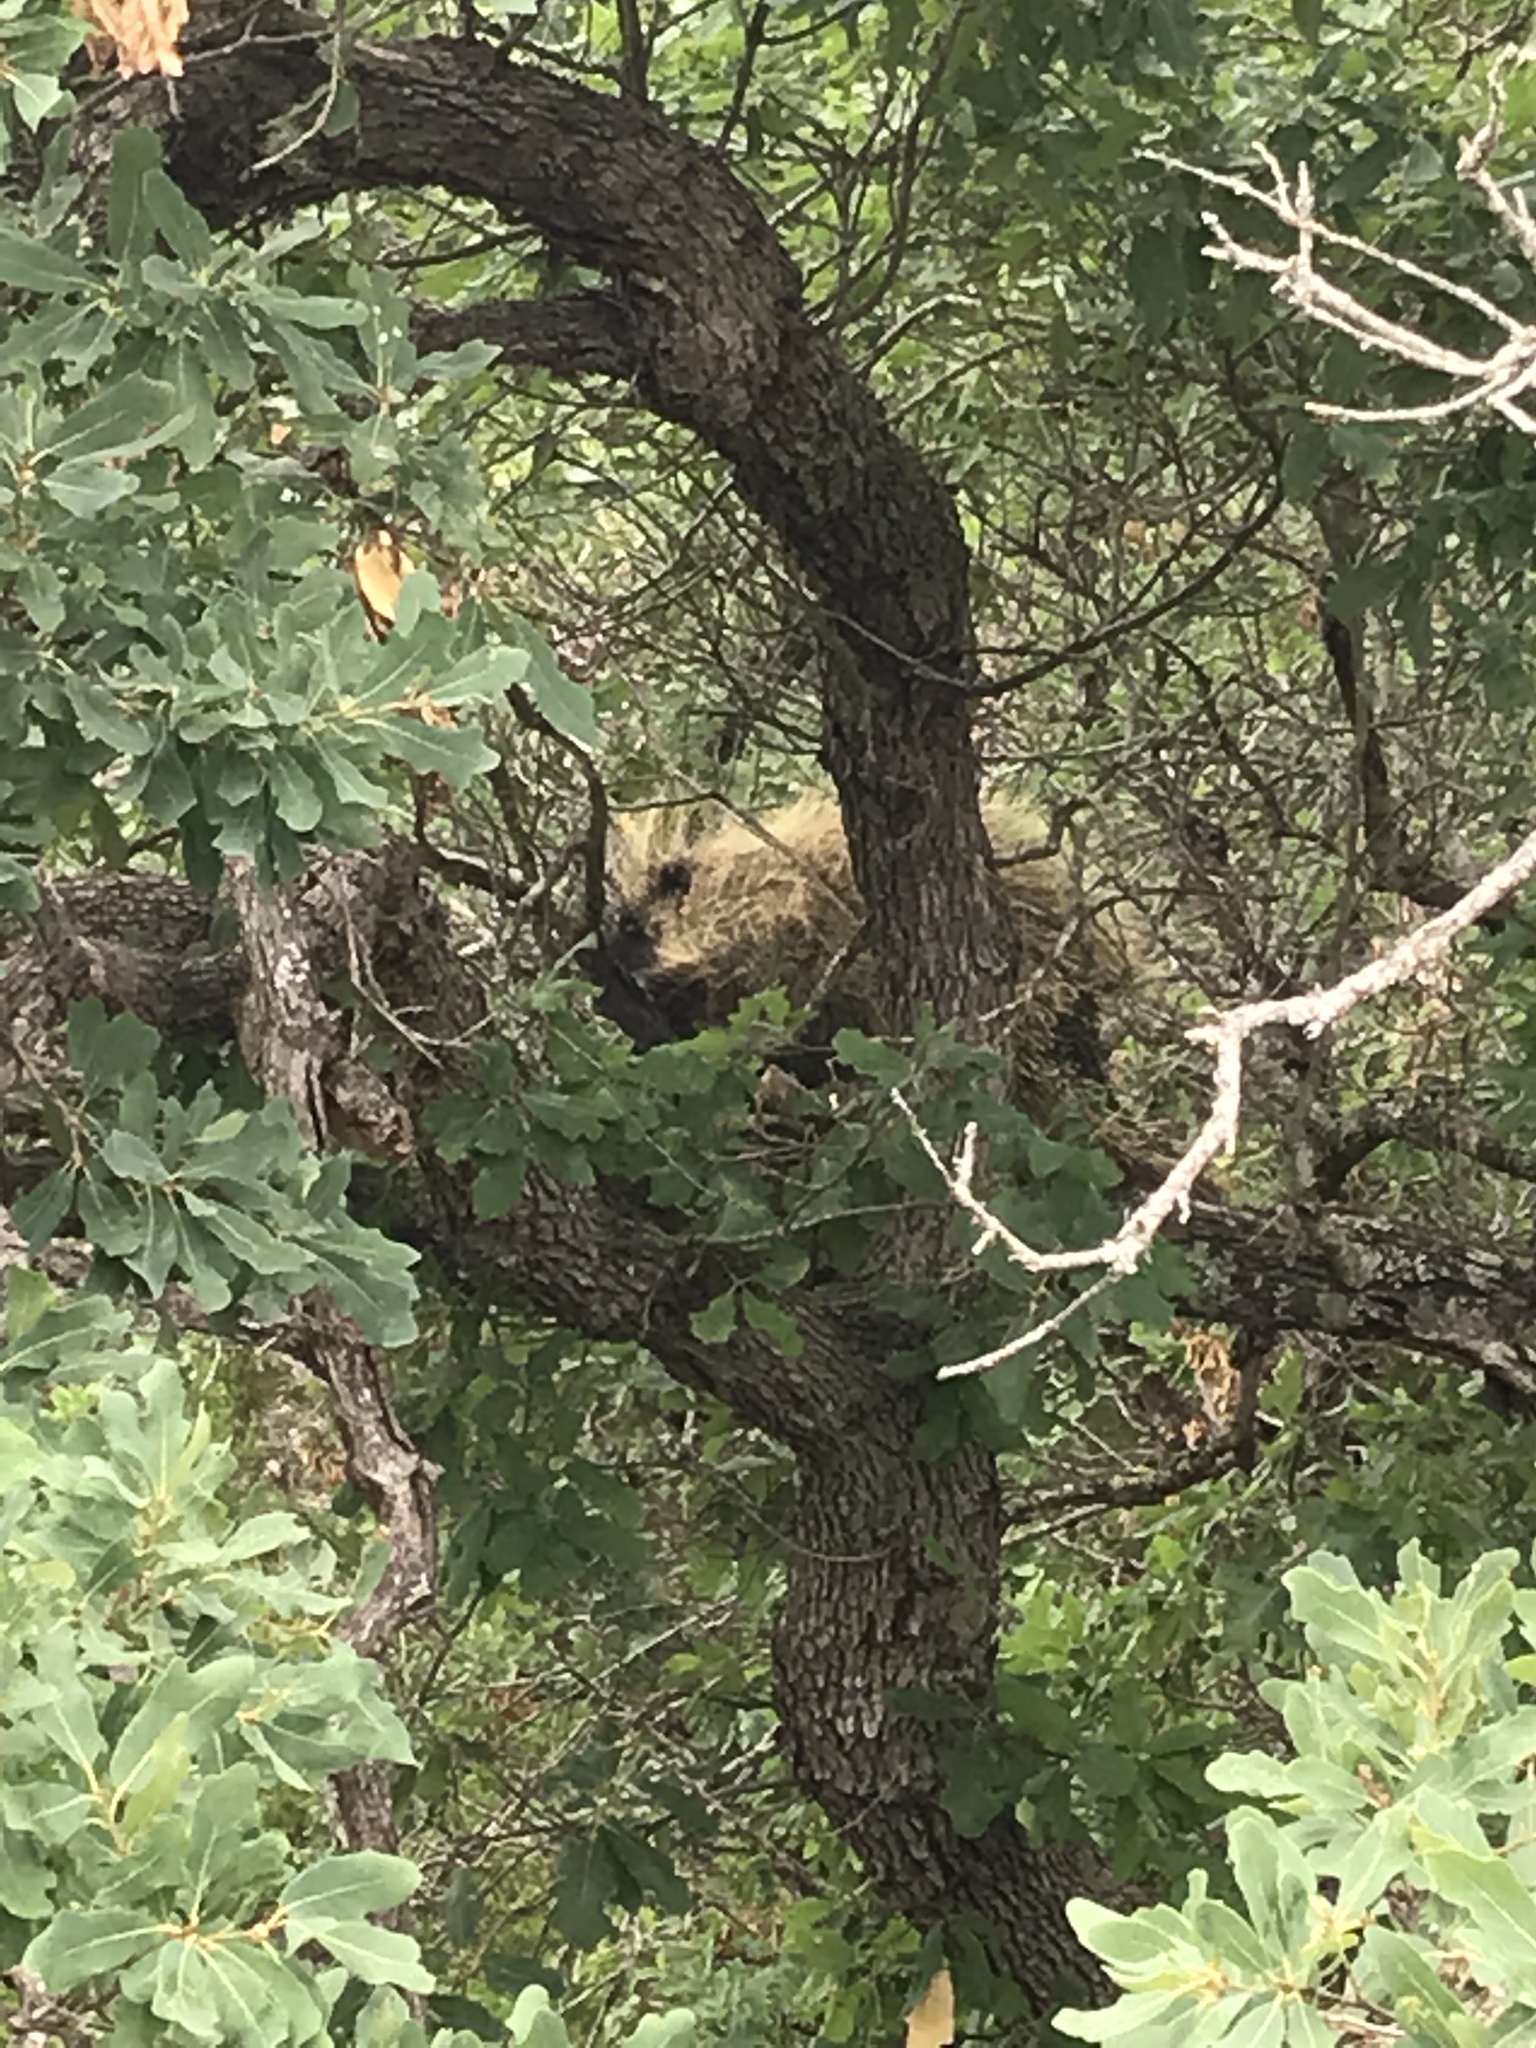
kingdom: Animalia
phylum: Chordata
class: Mammalia
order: Rodentia
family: Erethizontidae
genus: Erethizon
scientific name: Erethizon dorsatus
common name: North american porcupine
